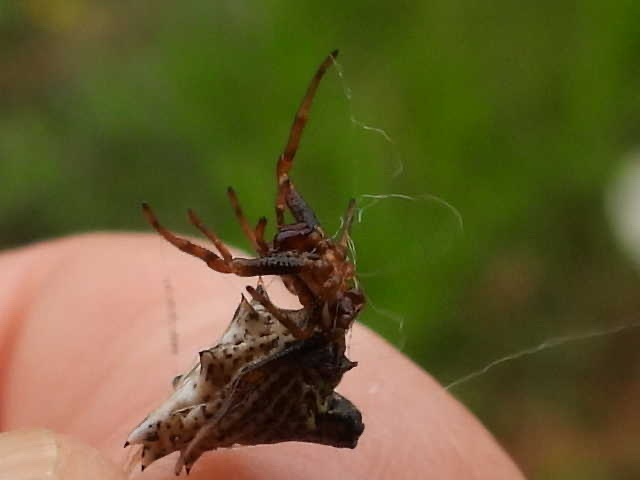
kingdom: Animalia
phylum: Arthropoda
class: Arachnida
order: Araneae
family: Araneidae
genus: Micrathena
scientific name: Micrathena gracilis
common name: Orb weavers
